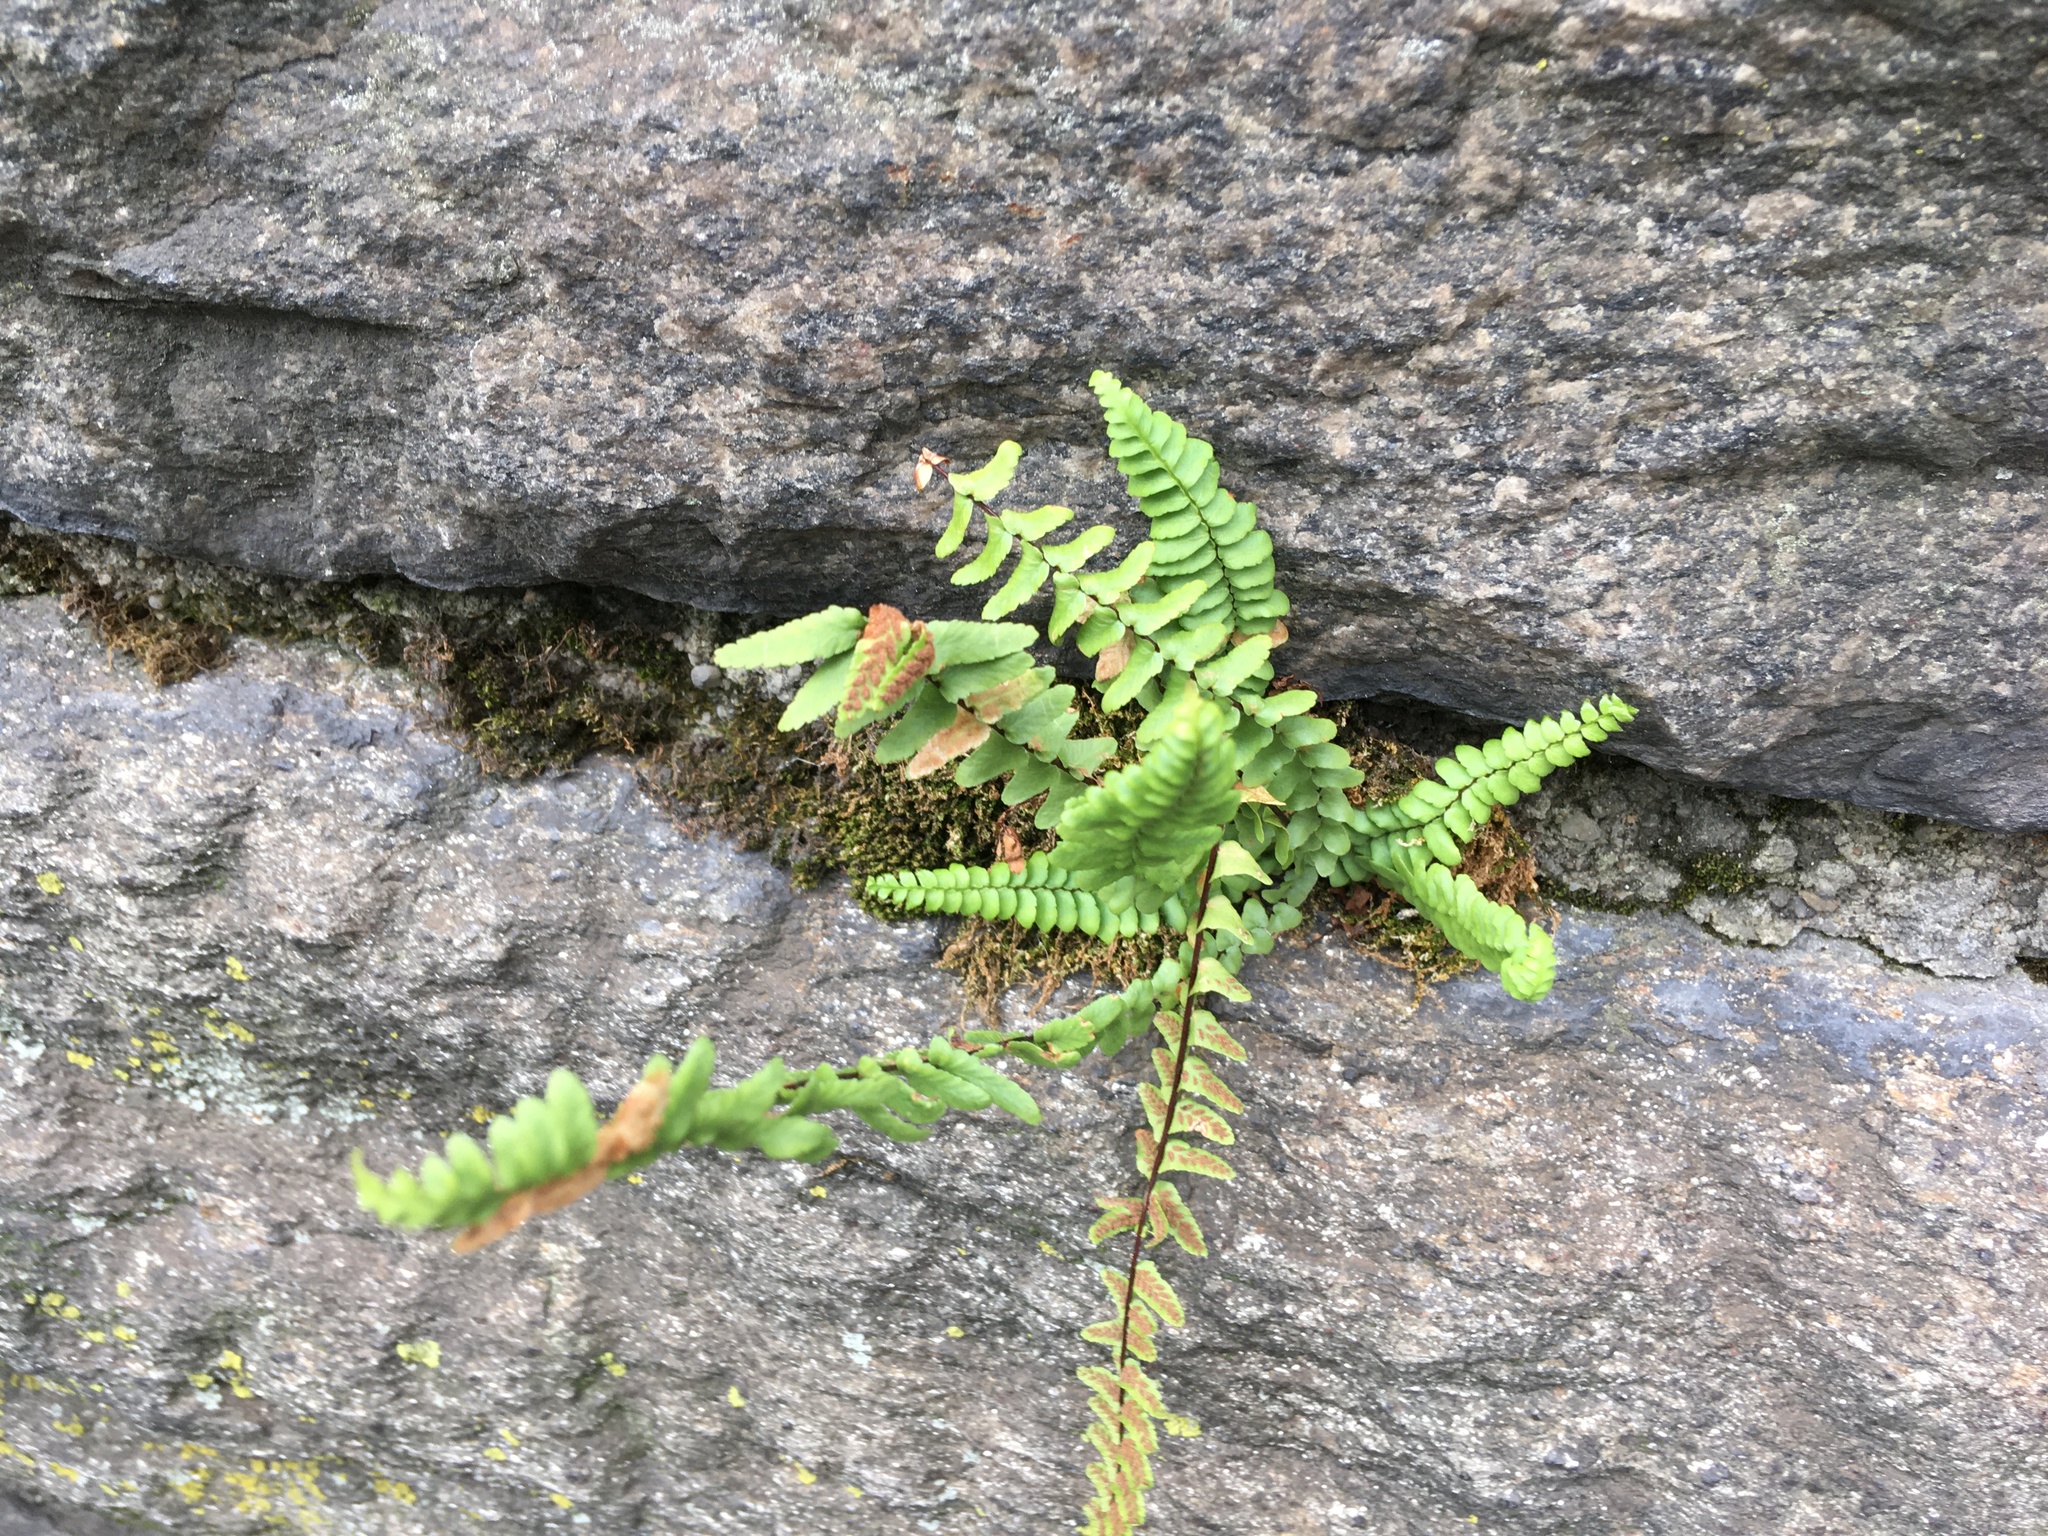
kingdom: Plantae
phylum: Tracheophyta
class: Polypodiopsida
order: Polypodiales
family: Aspleniaceae
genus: Asplenium
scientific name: Asplenium platyneuron
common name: Ebony spleenwort
